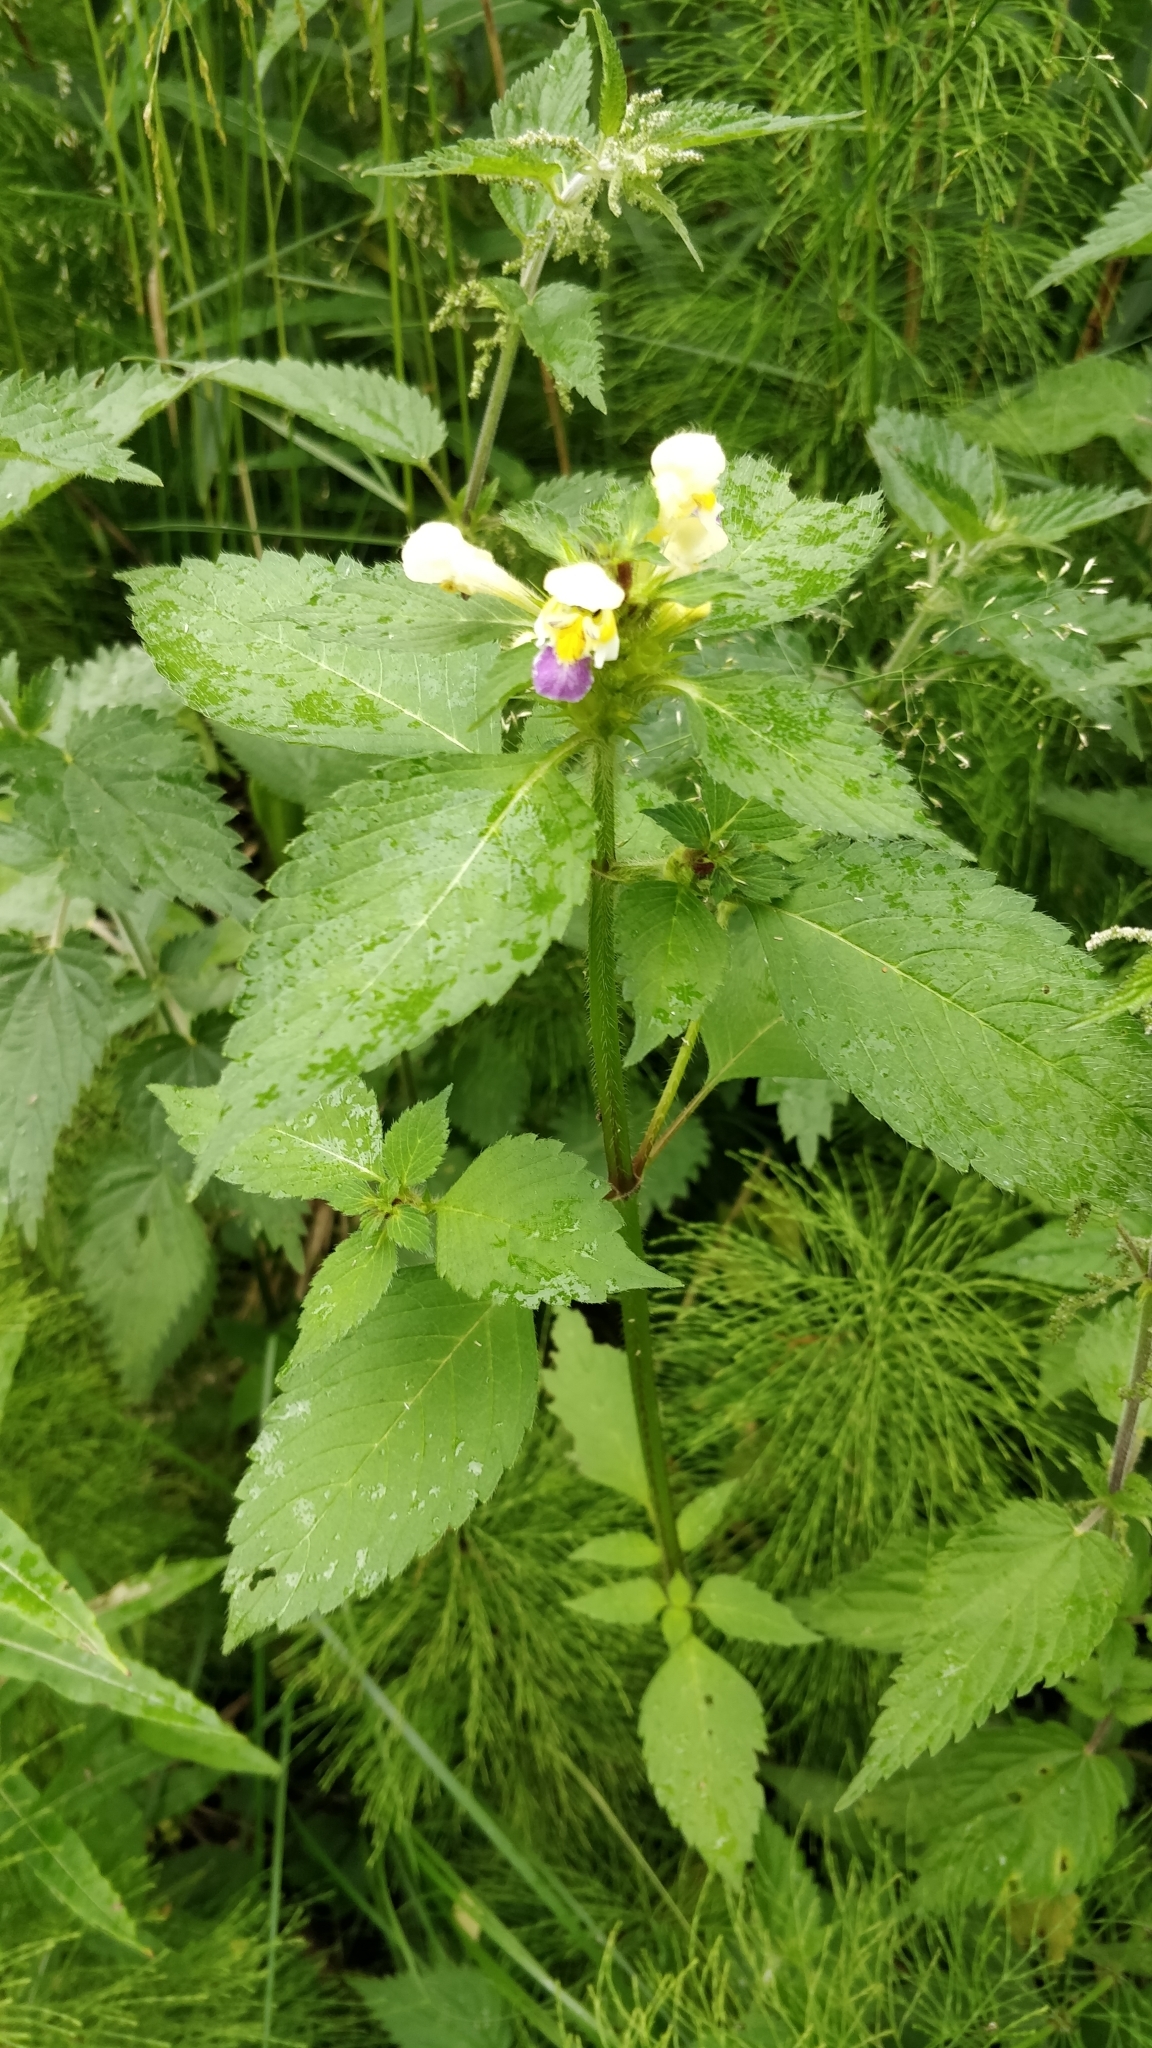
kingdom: Plantae
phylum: Tracheophyta
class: Magnoliopsida
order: Lamiales
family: Lamiaceae
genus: Galeopsis
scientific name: Galeopsis speciosa
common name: Large-flowered hemp-nettle
